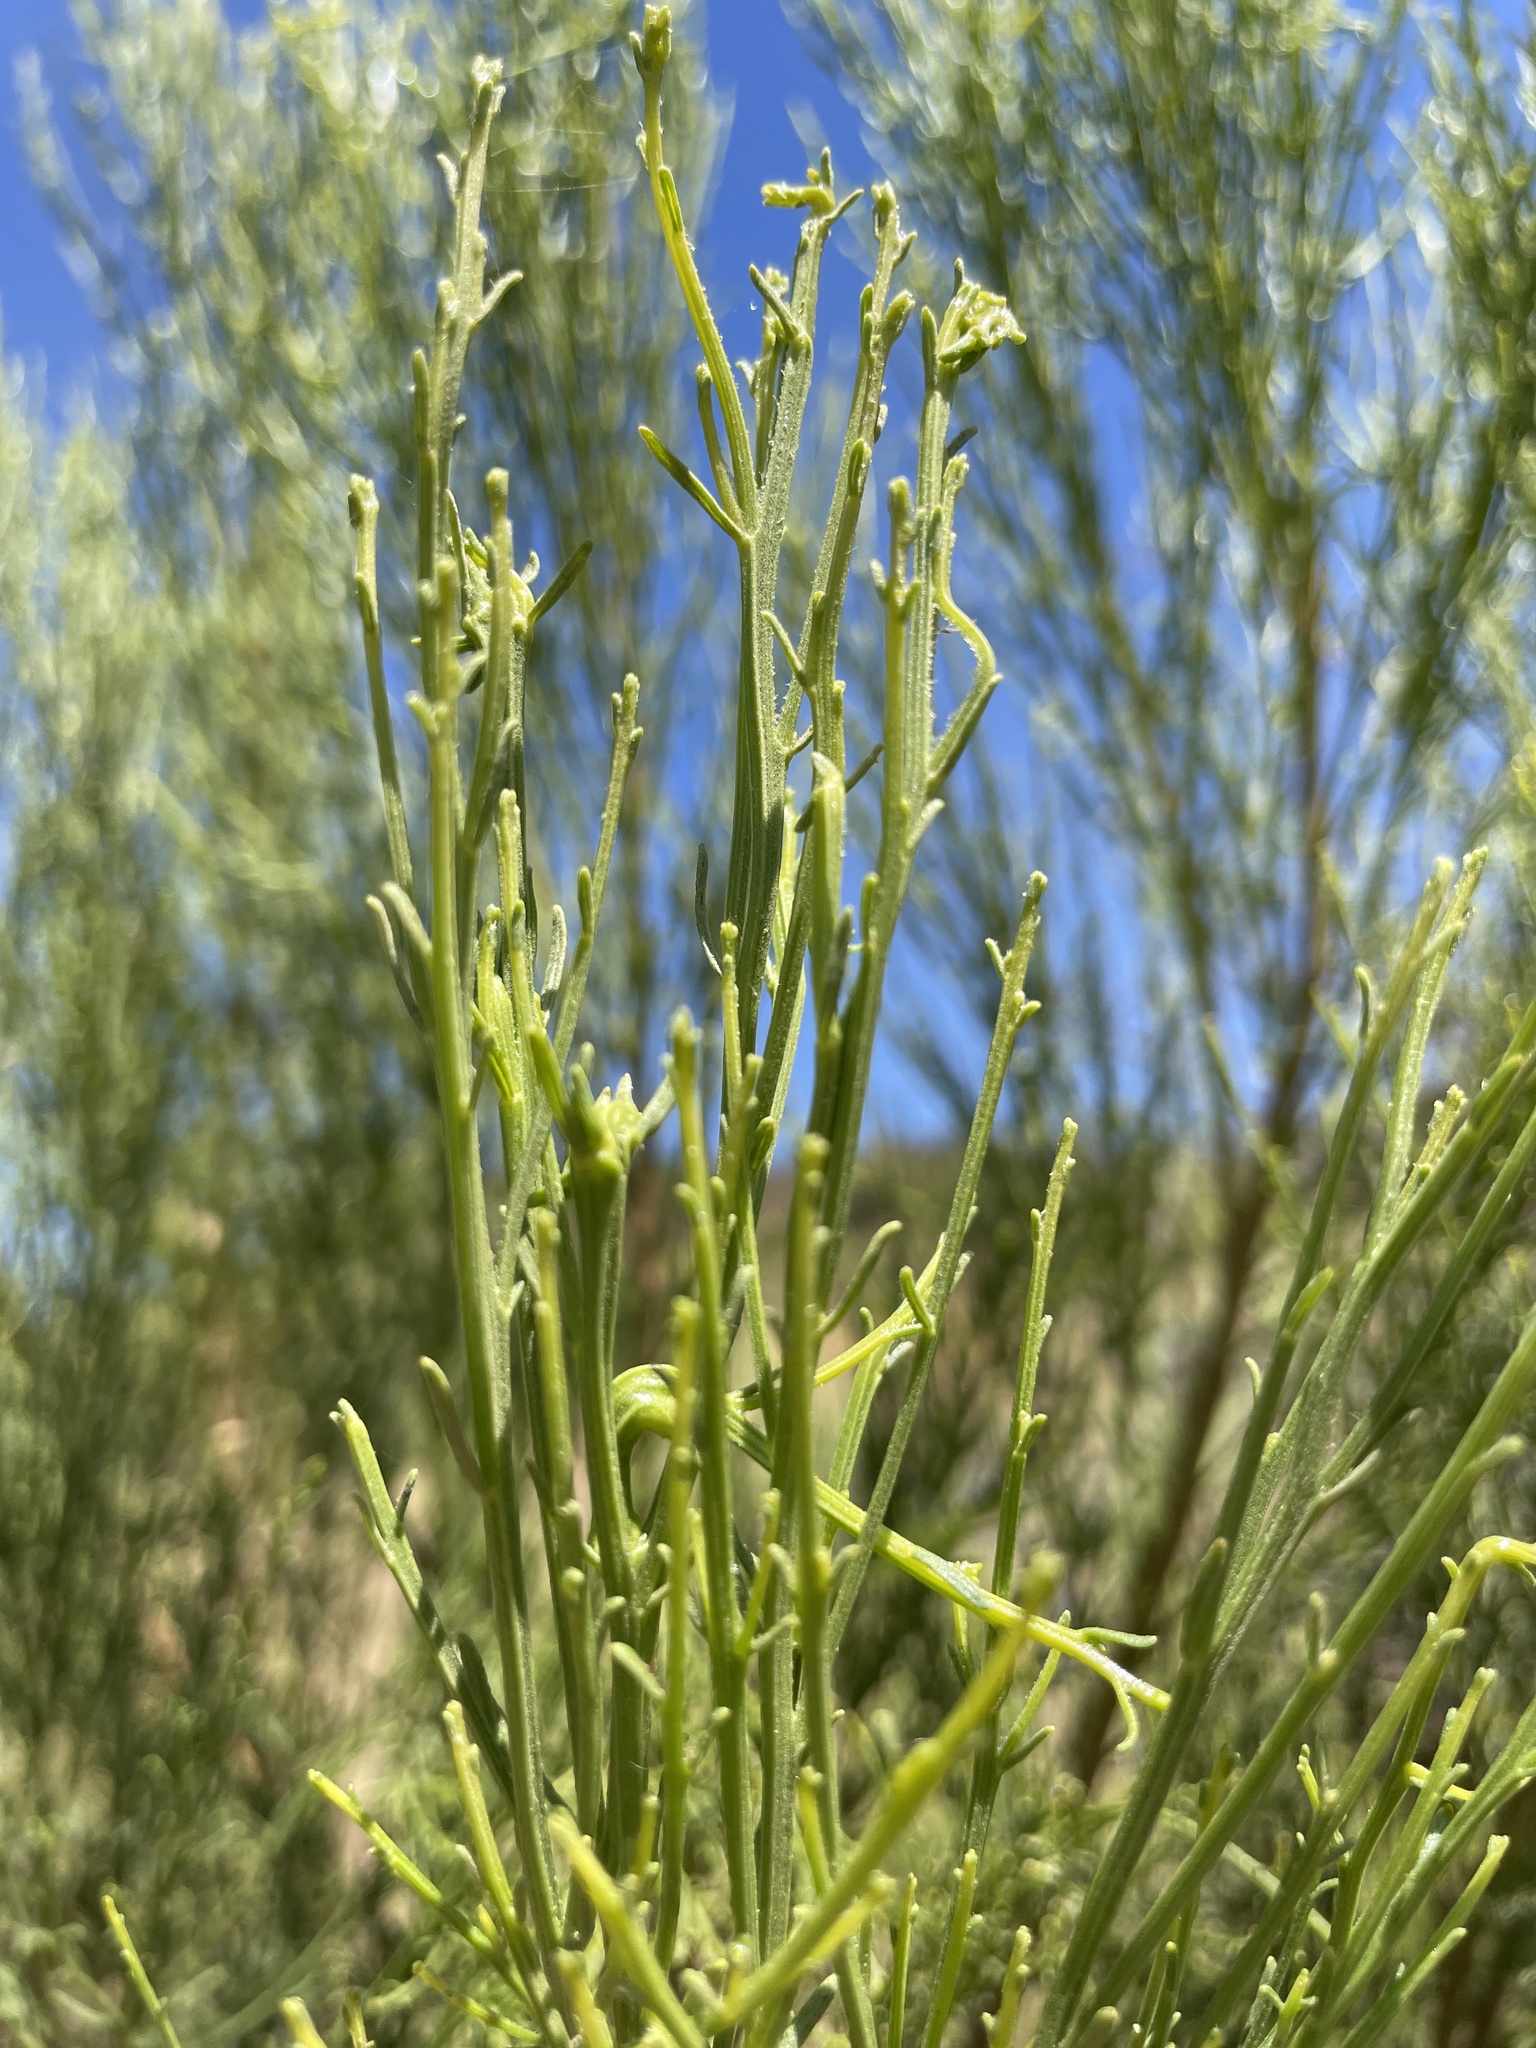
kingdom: Plantae
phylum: Tracheophyta
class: Magnoliopsida
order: Asterales
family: Asteraceae
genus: Baccharis
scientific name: Baccharis sarothroides
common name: Desert-broom
